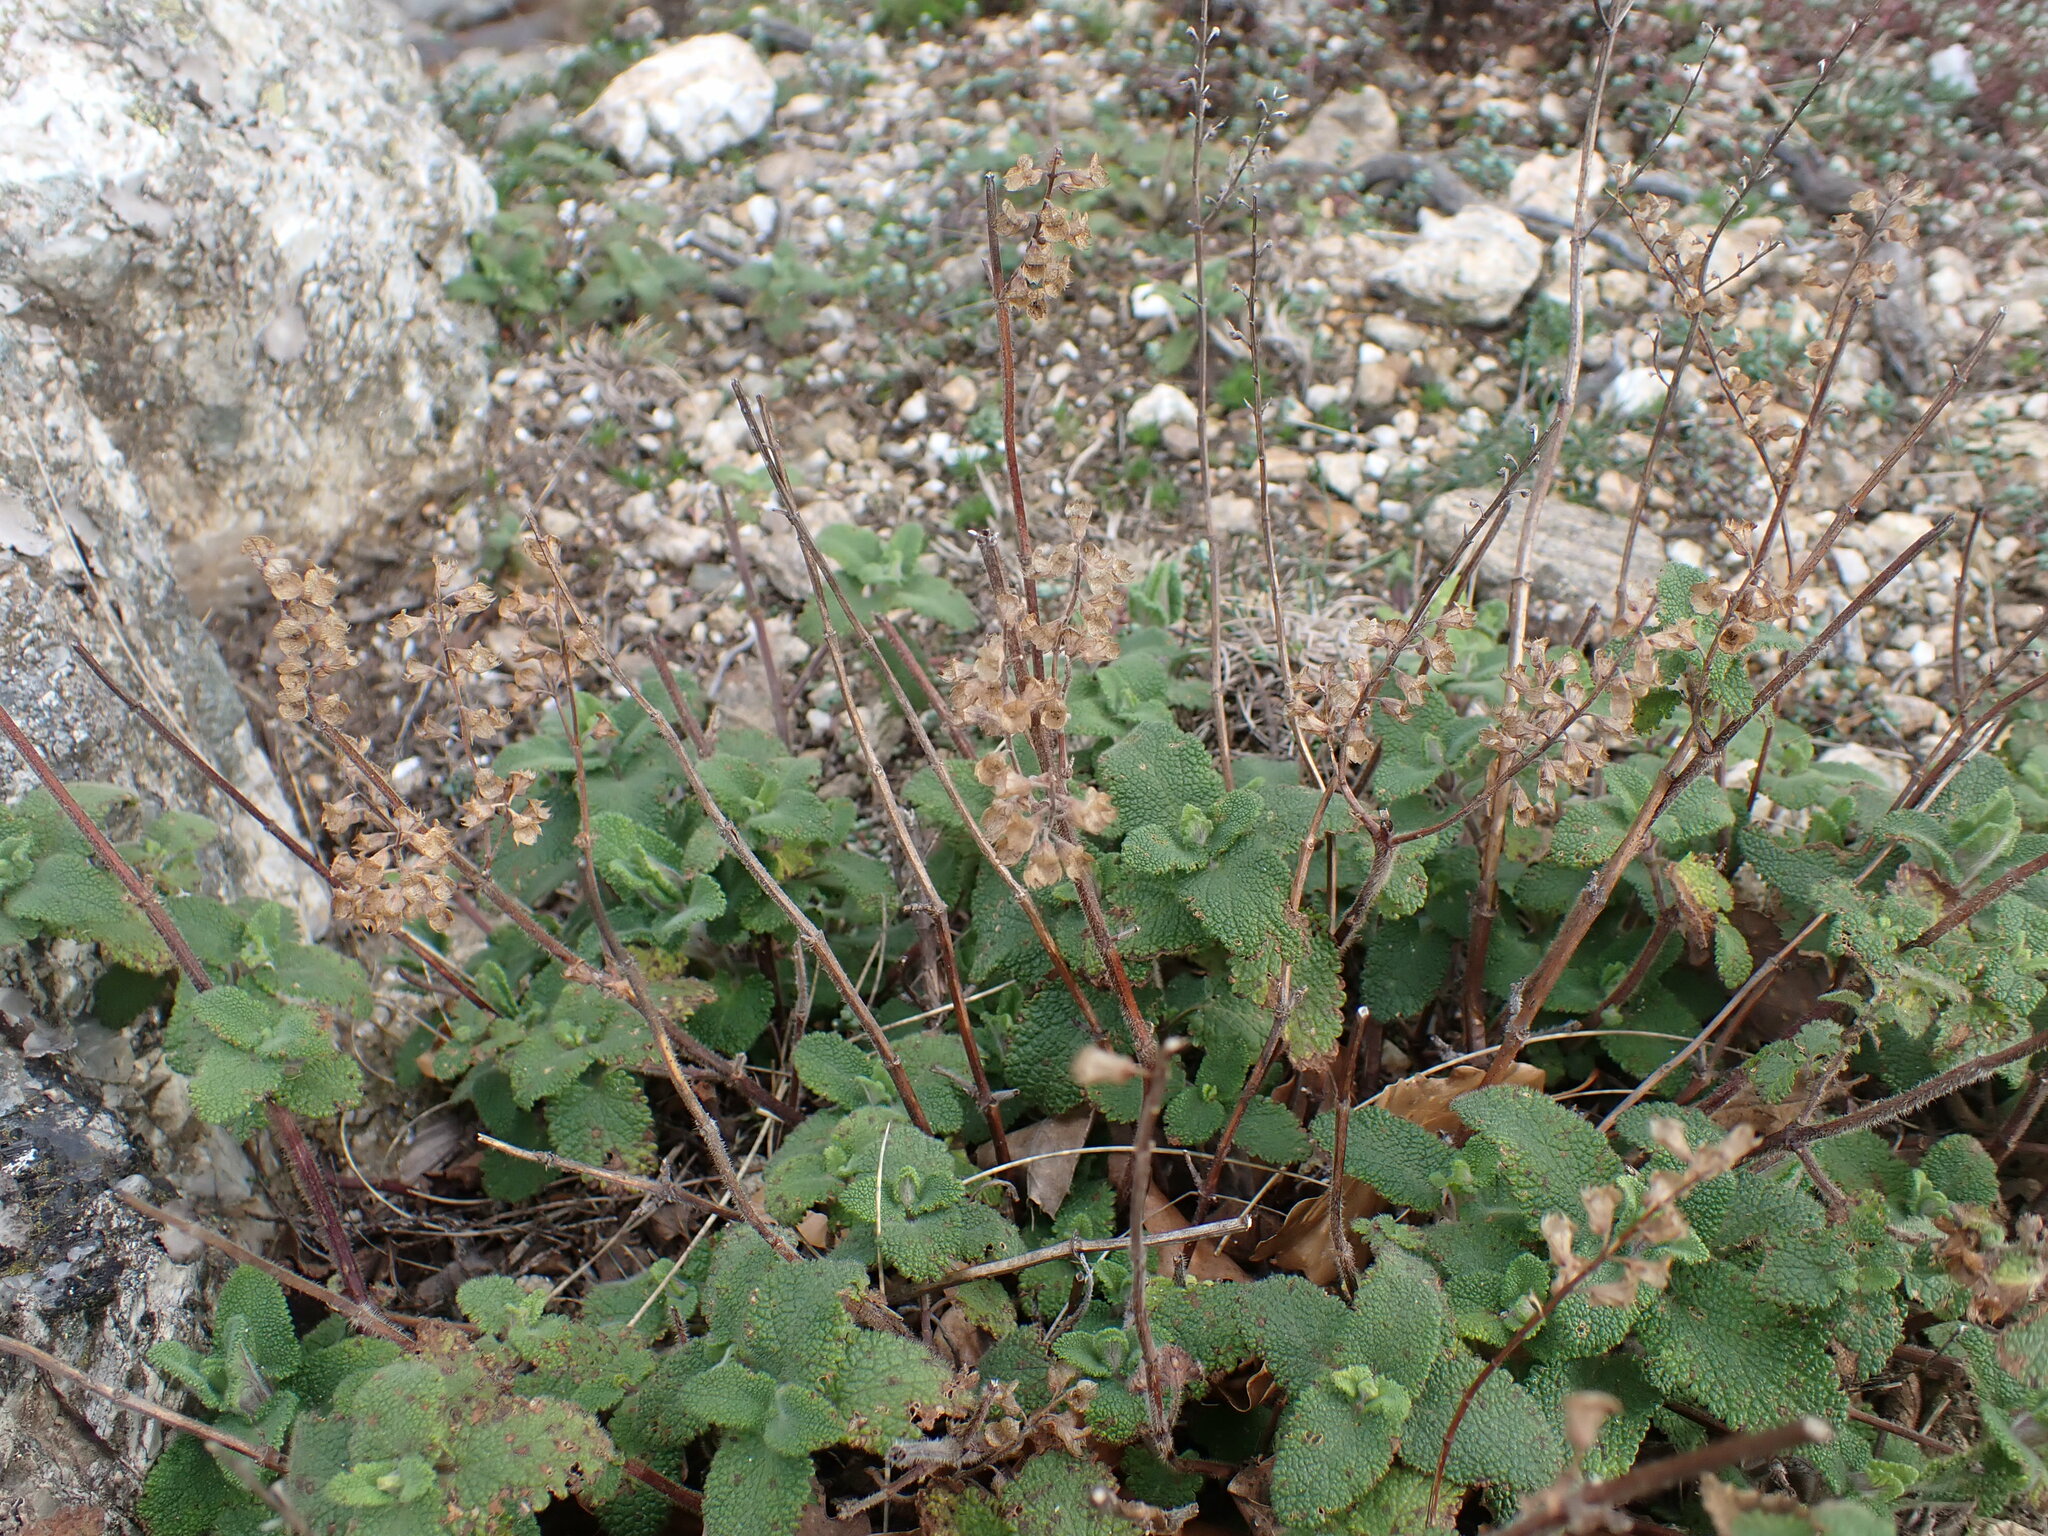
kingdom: Plantae
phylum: Tracheophyta
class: Magnoliopsida
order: Lamiales
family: Lamiaceae
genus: Teucrium
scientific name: Teucrium scorodonia
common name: Woodland germander
